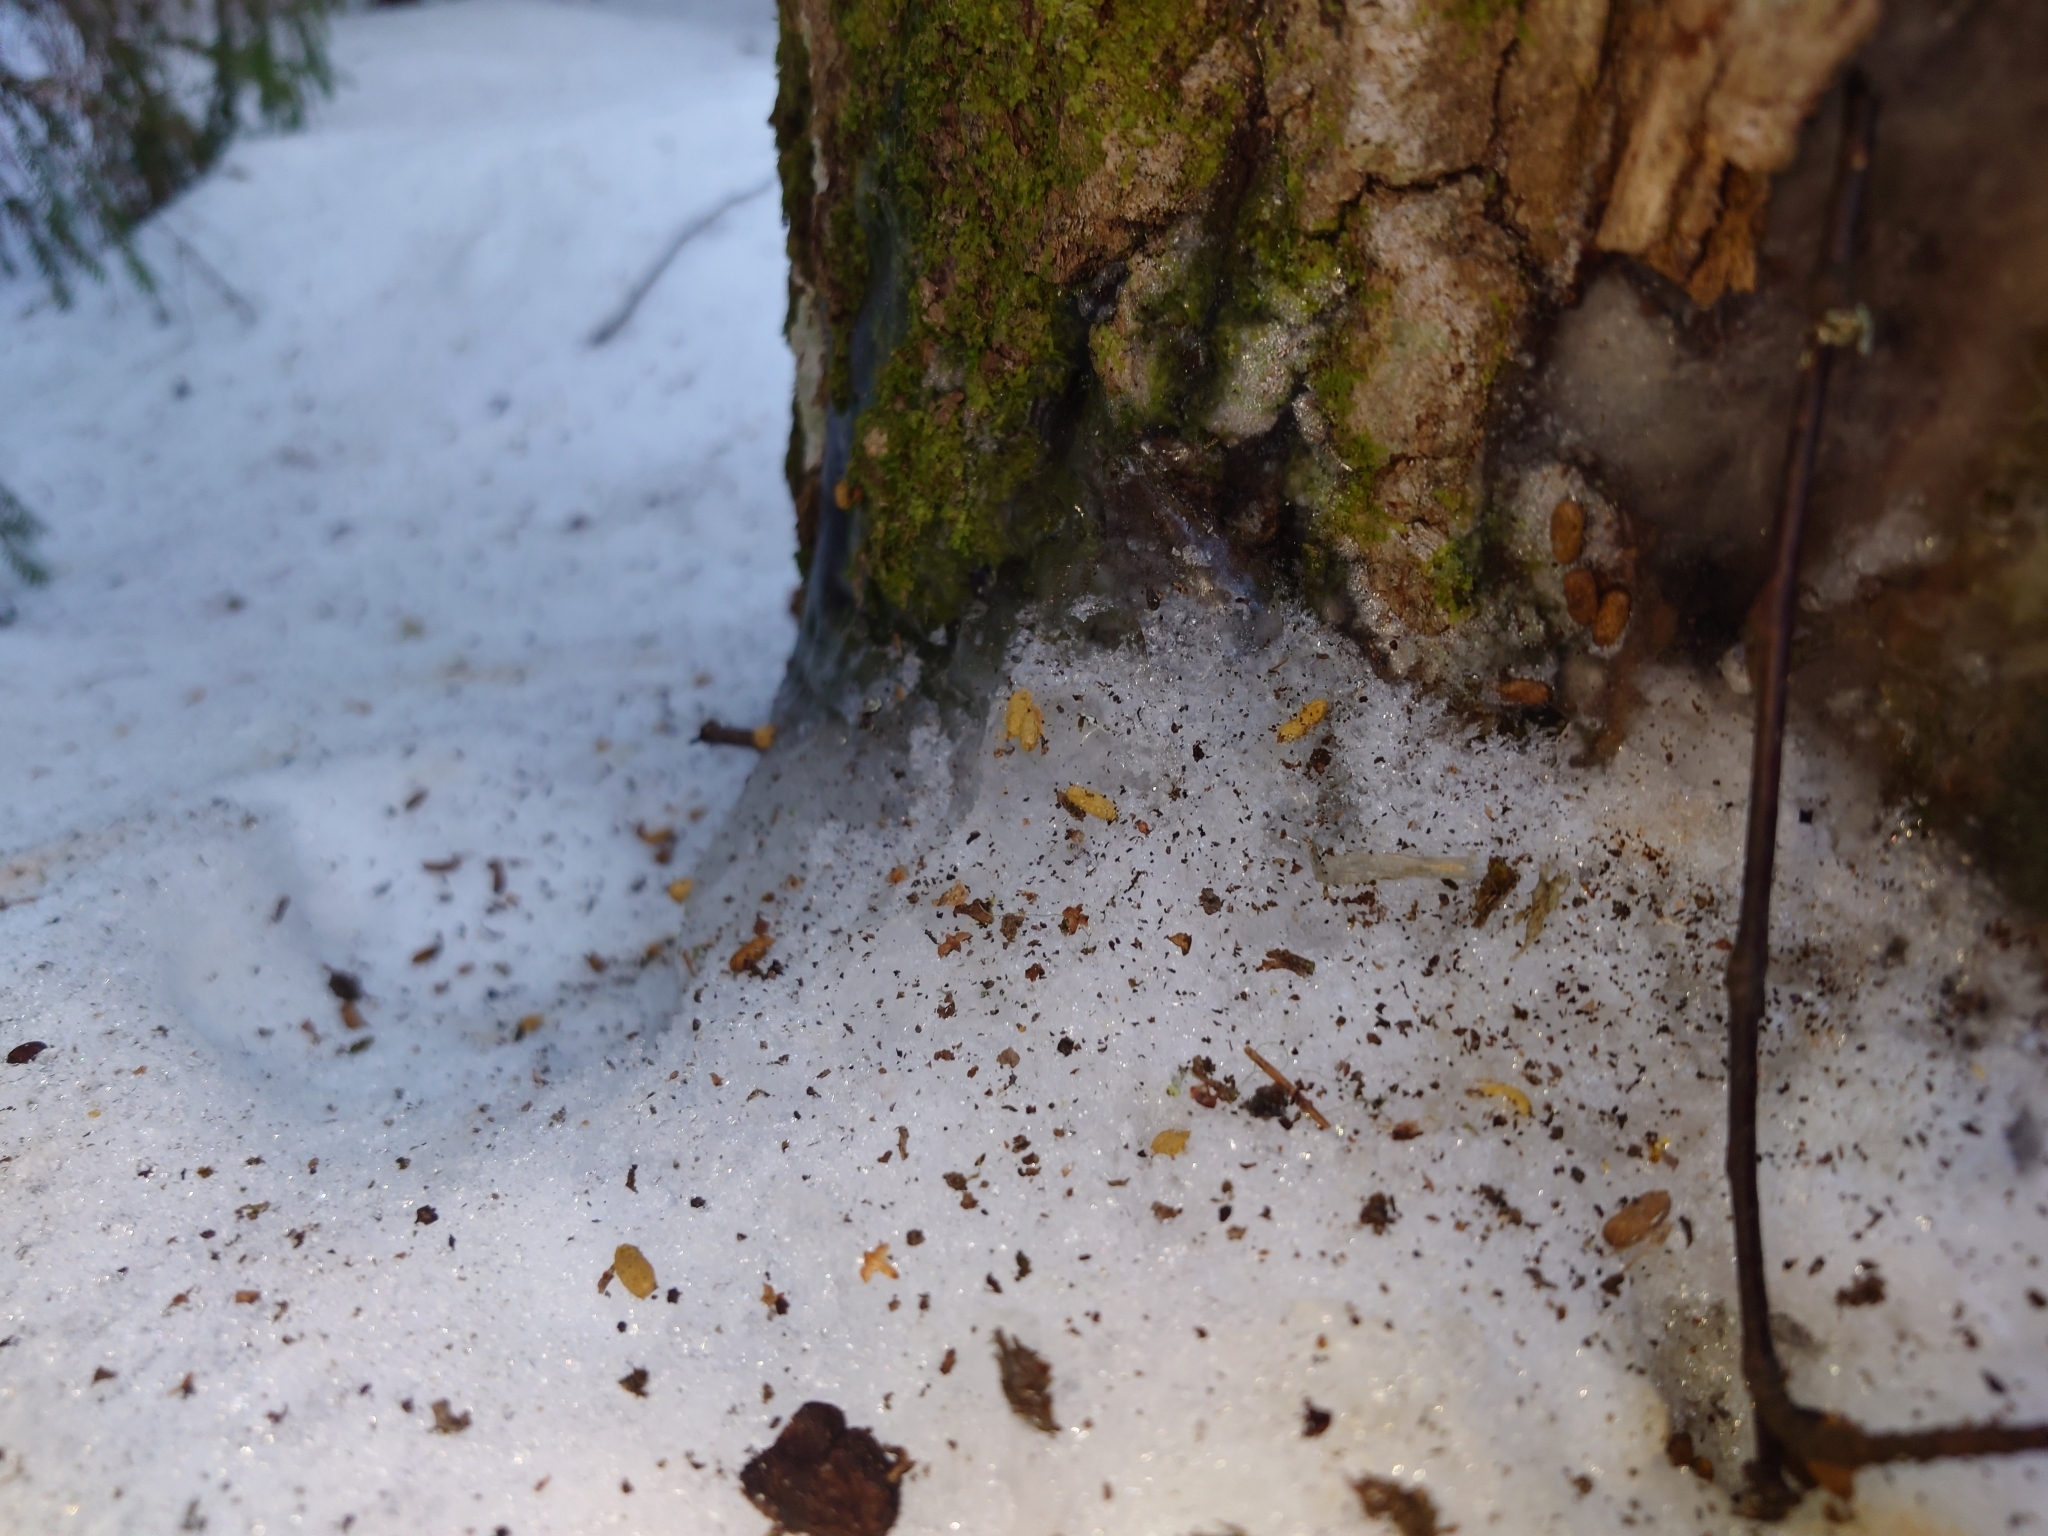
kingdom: Animalia
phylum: Chordata
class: Mammalia
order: Rodentia
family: Sciuridae
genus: Pteromys
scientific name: Pteromys volans
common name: Siberian flying squirrel
